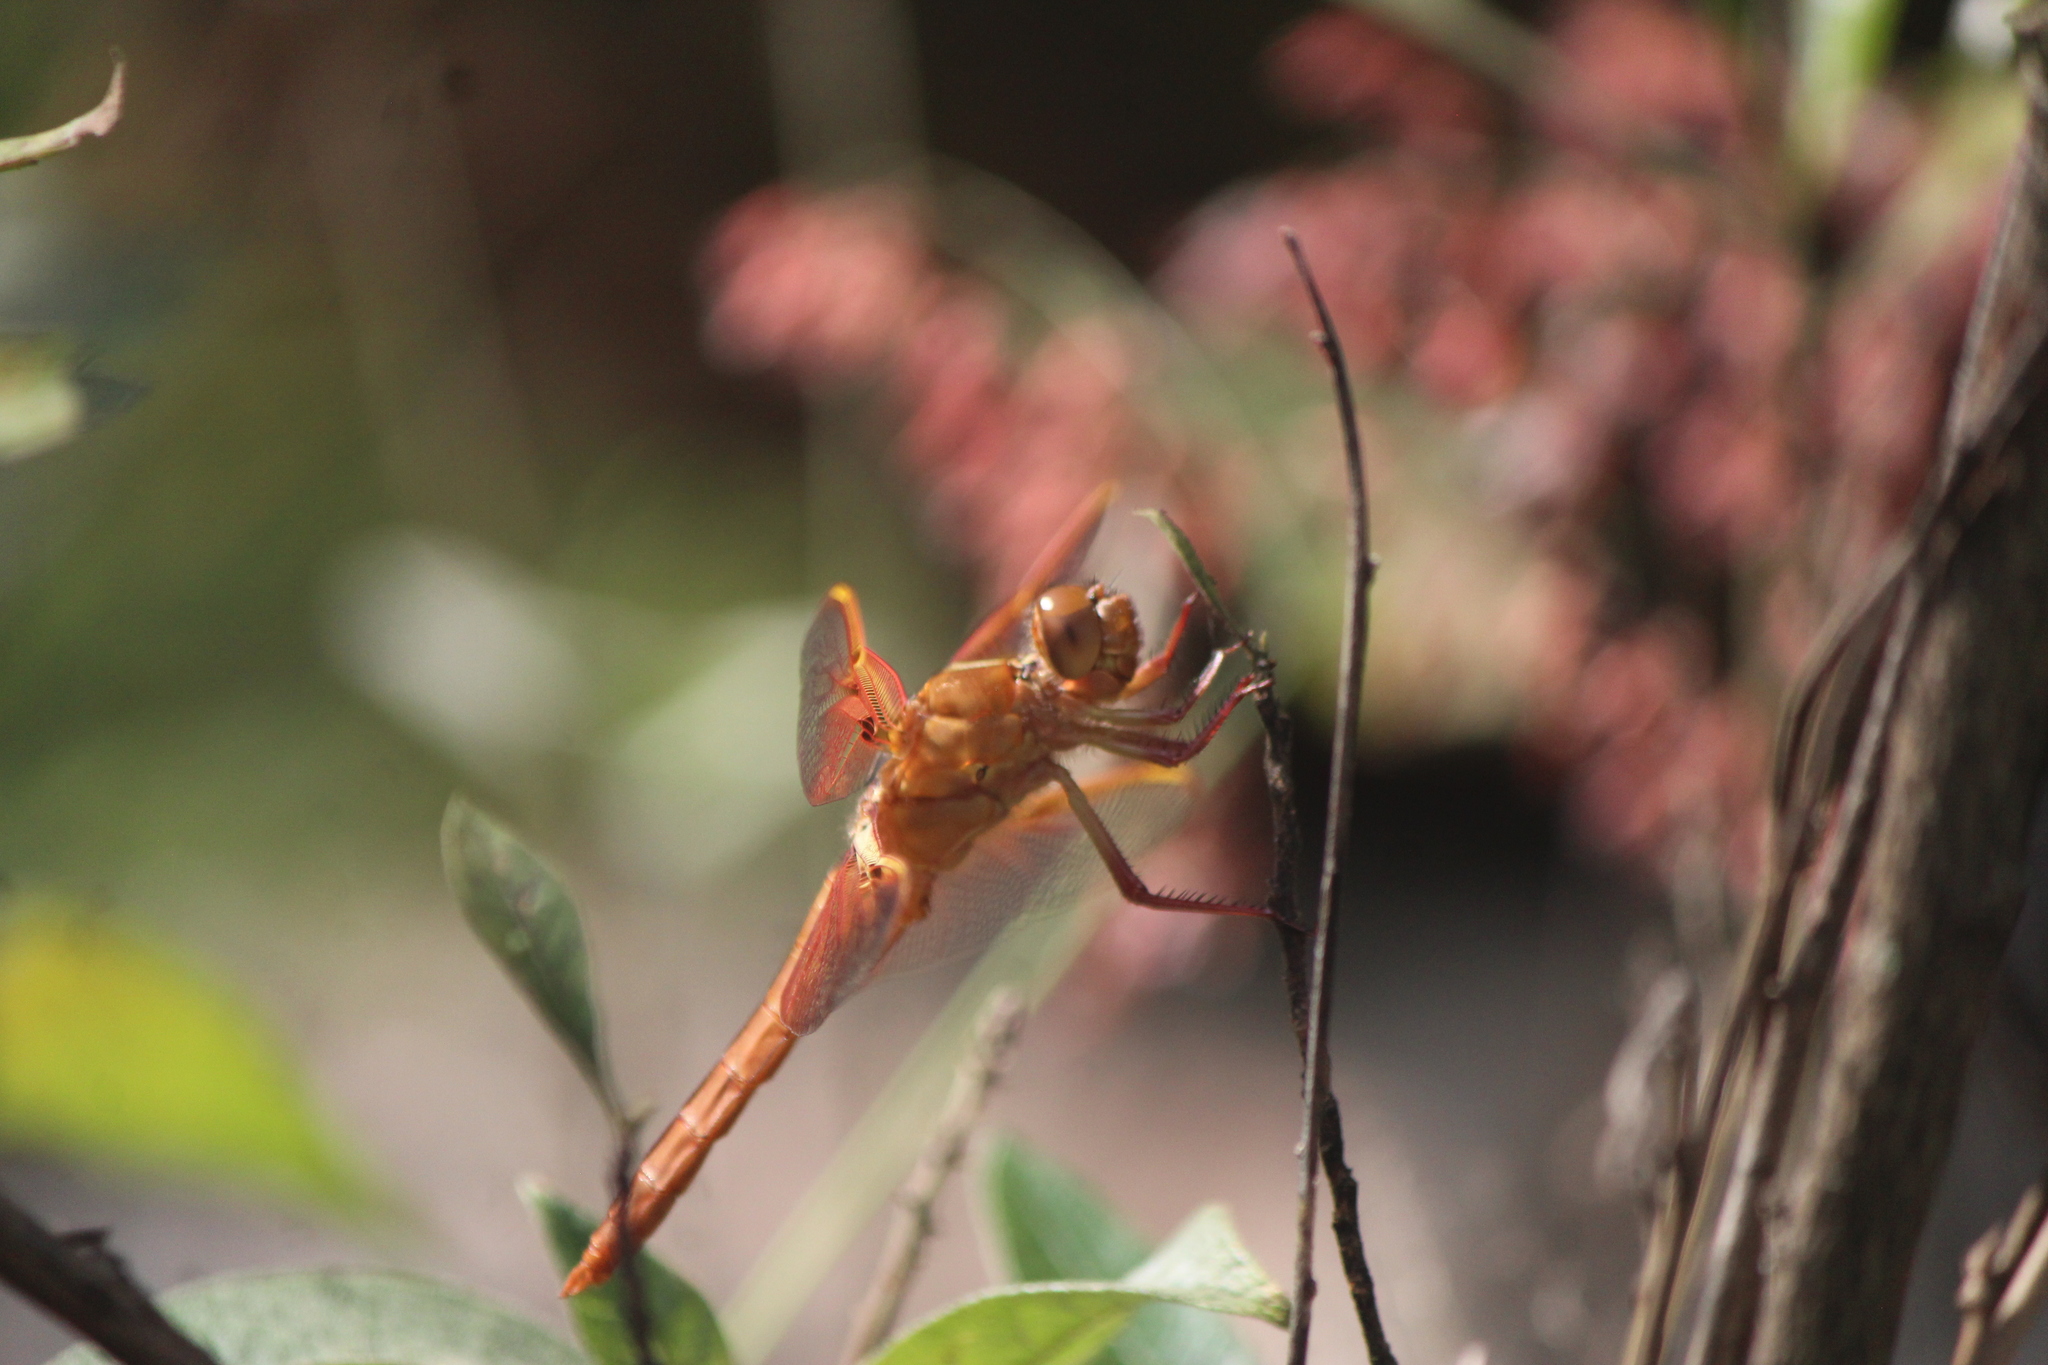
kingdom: Animalia
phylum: Arthropoda
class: Insecta
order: Odonata
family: Libellulidae
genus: Libellula
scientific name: Libellula saturata
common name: Flame skimmer
